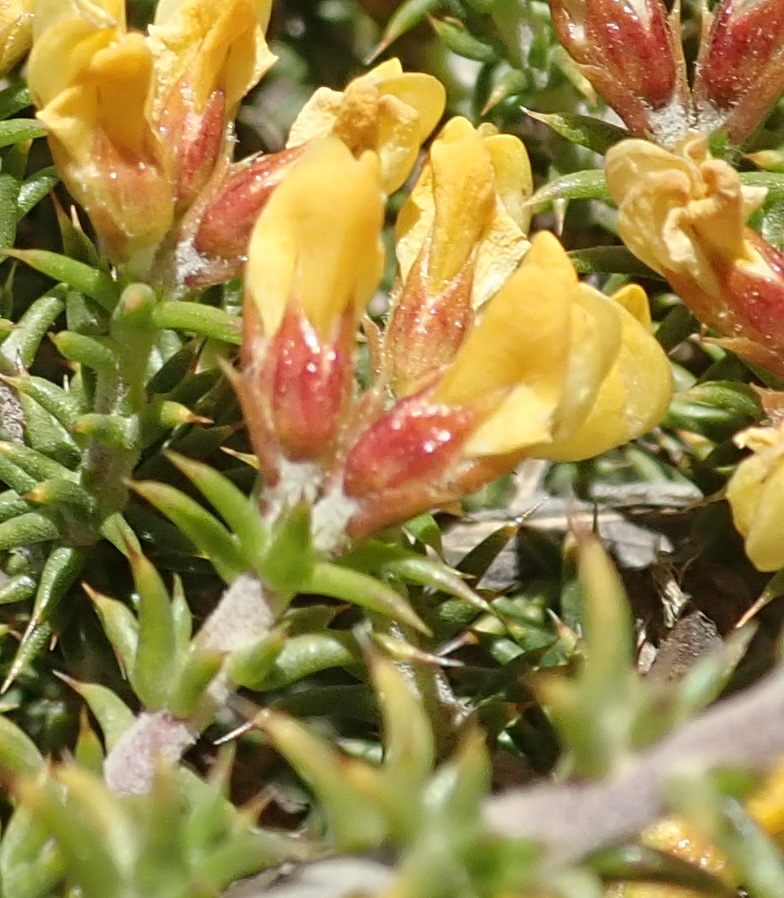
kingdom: Plantae
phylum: Tracheophyta
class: Magnoliopsida
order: Fabales
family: Fabaceae
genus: Aspalathus
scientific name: Aspalathus collina
